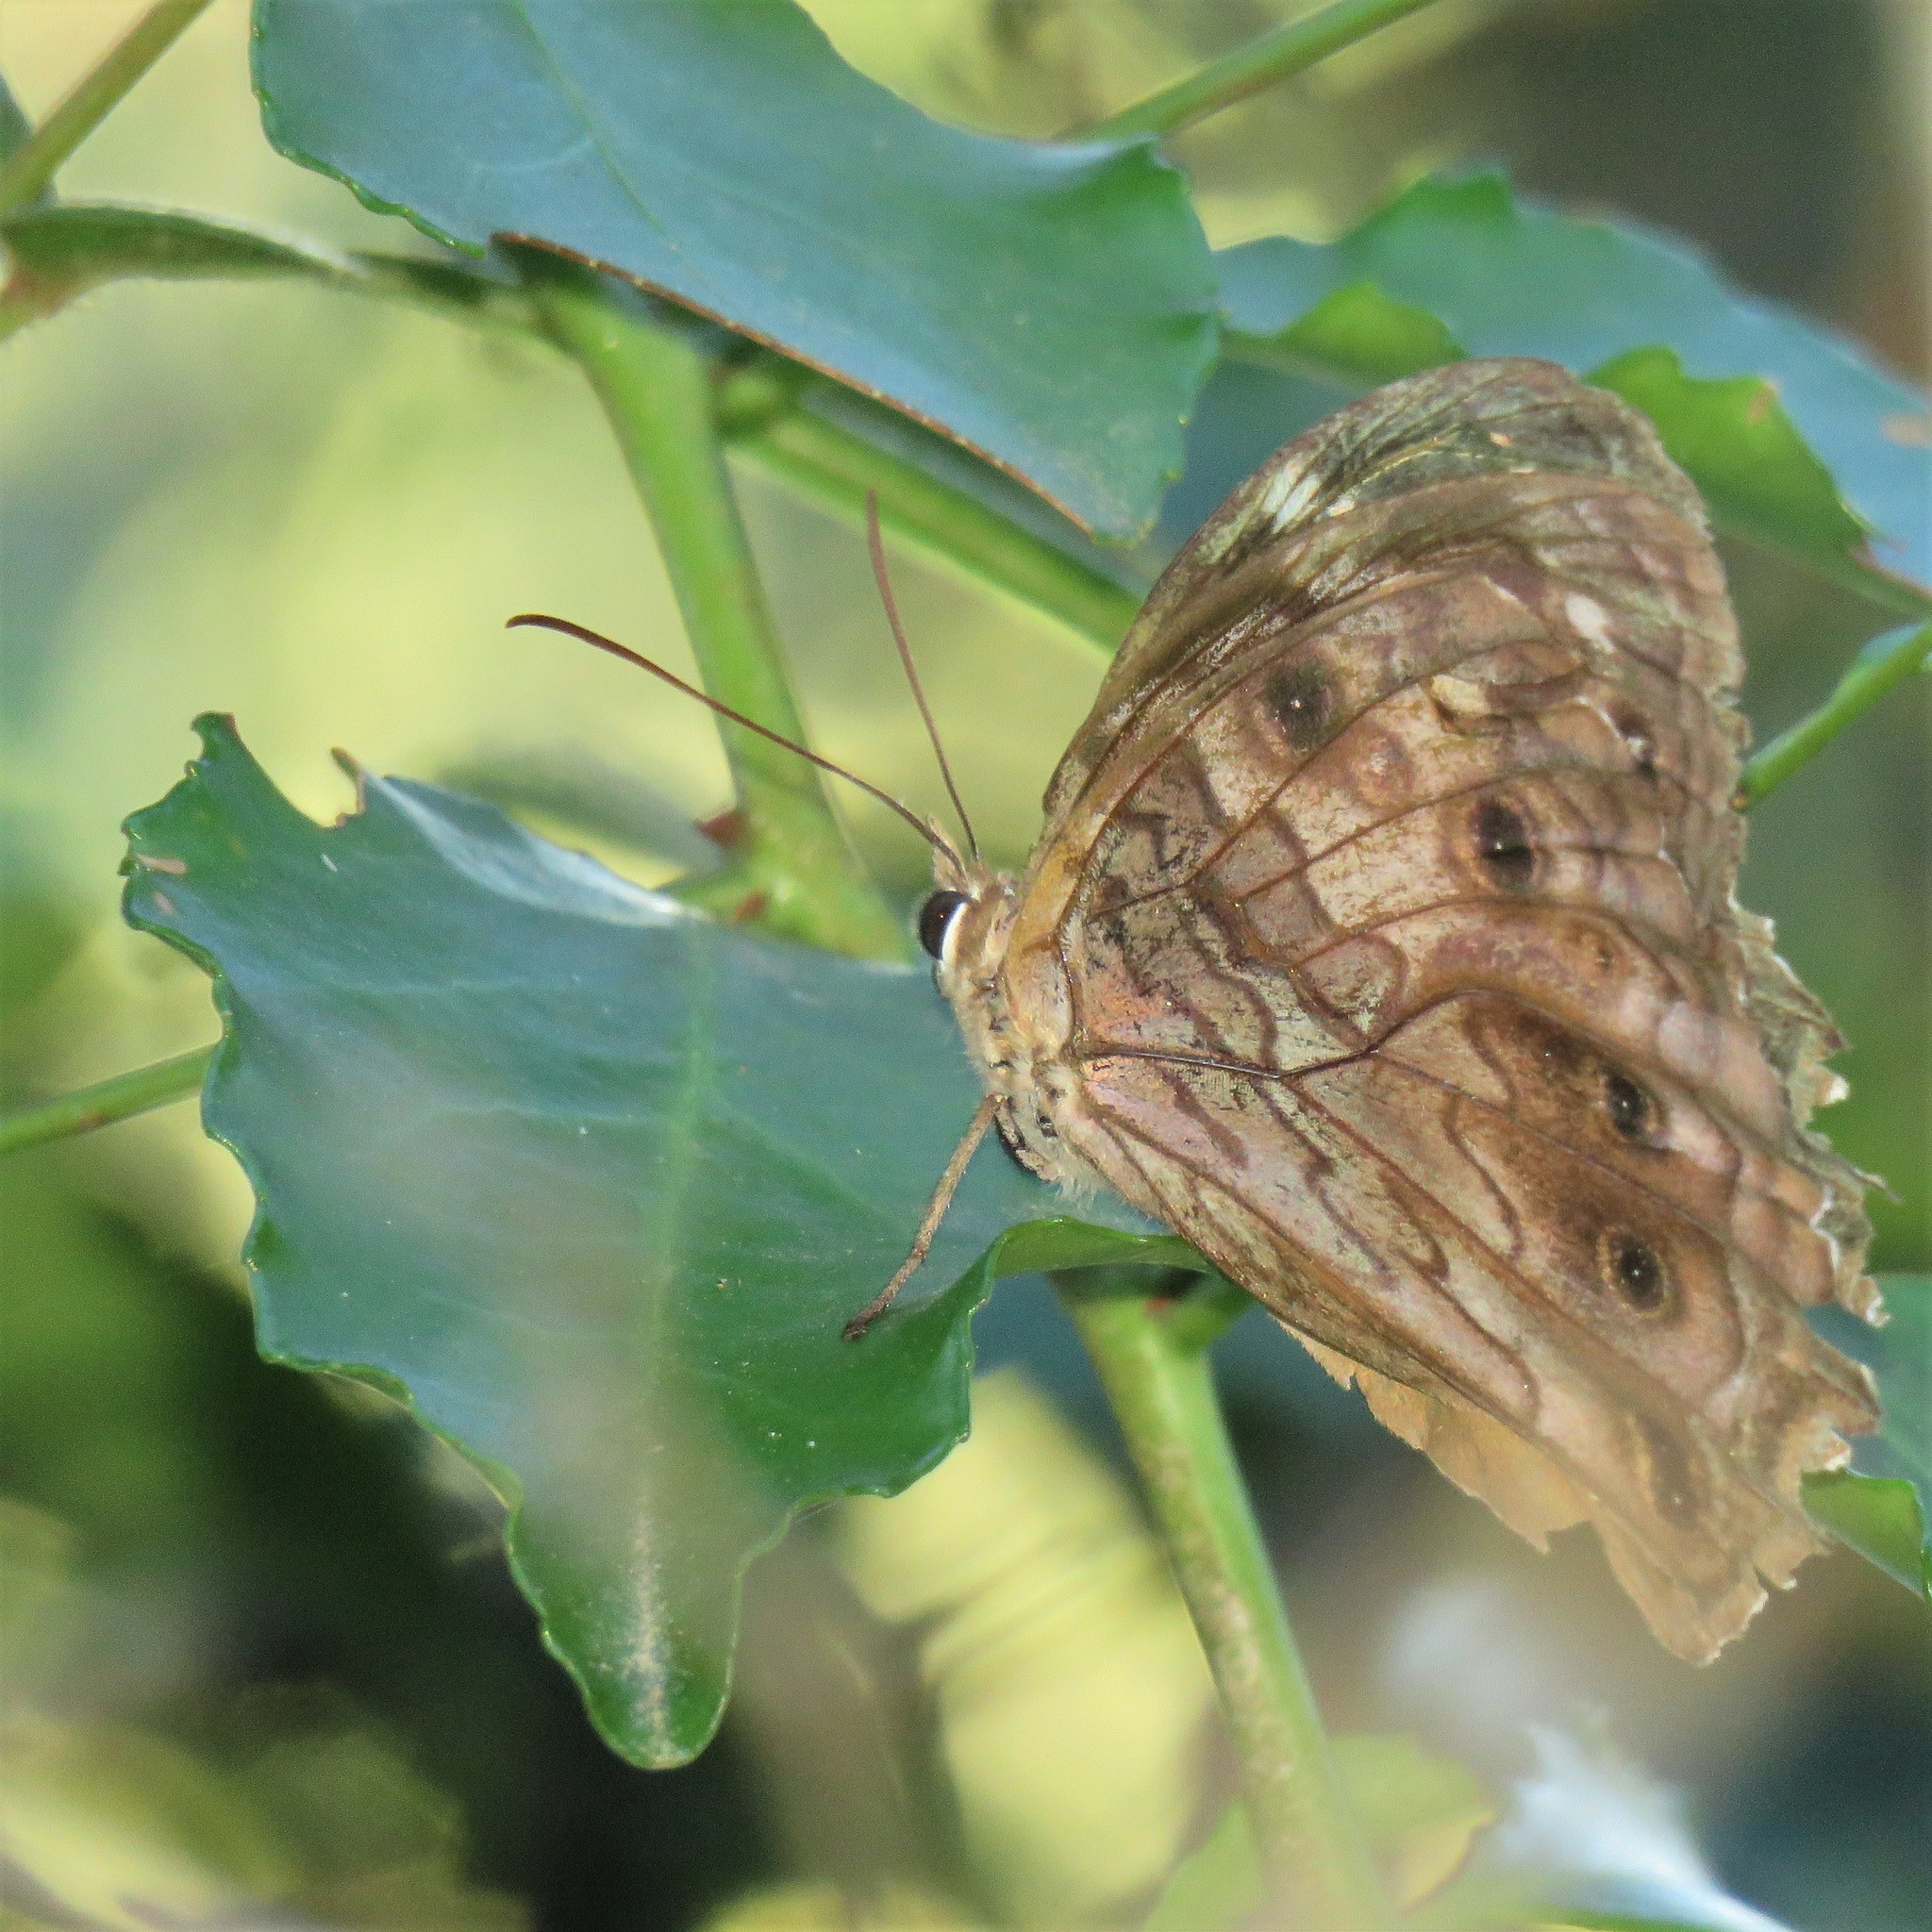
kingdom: Animalia
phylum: Arthropoda
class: Insecta
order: Lepidoptera
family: Nymphalidae
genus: Paralethe
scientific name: Paralethe dendrophilus
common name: Bush beauty
